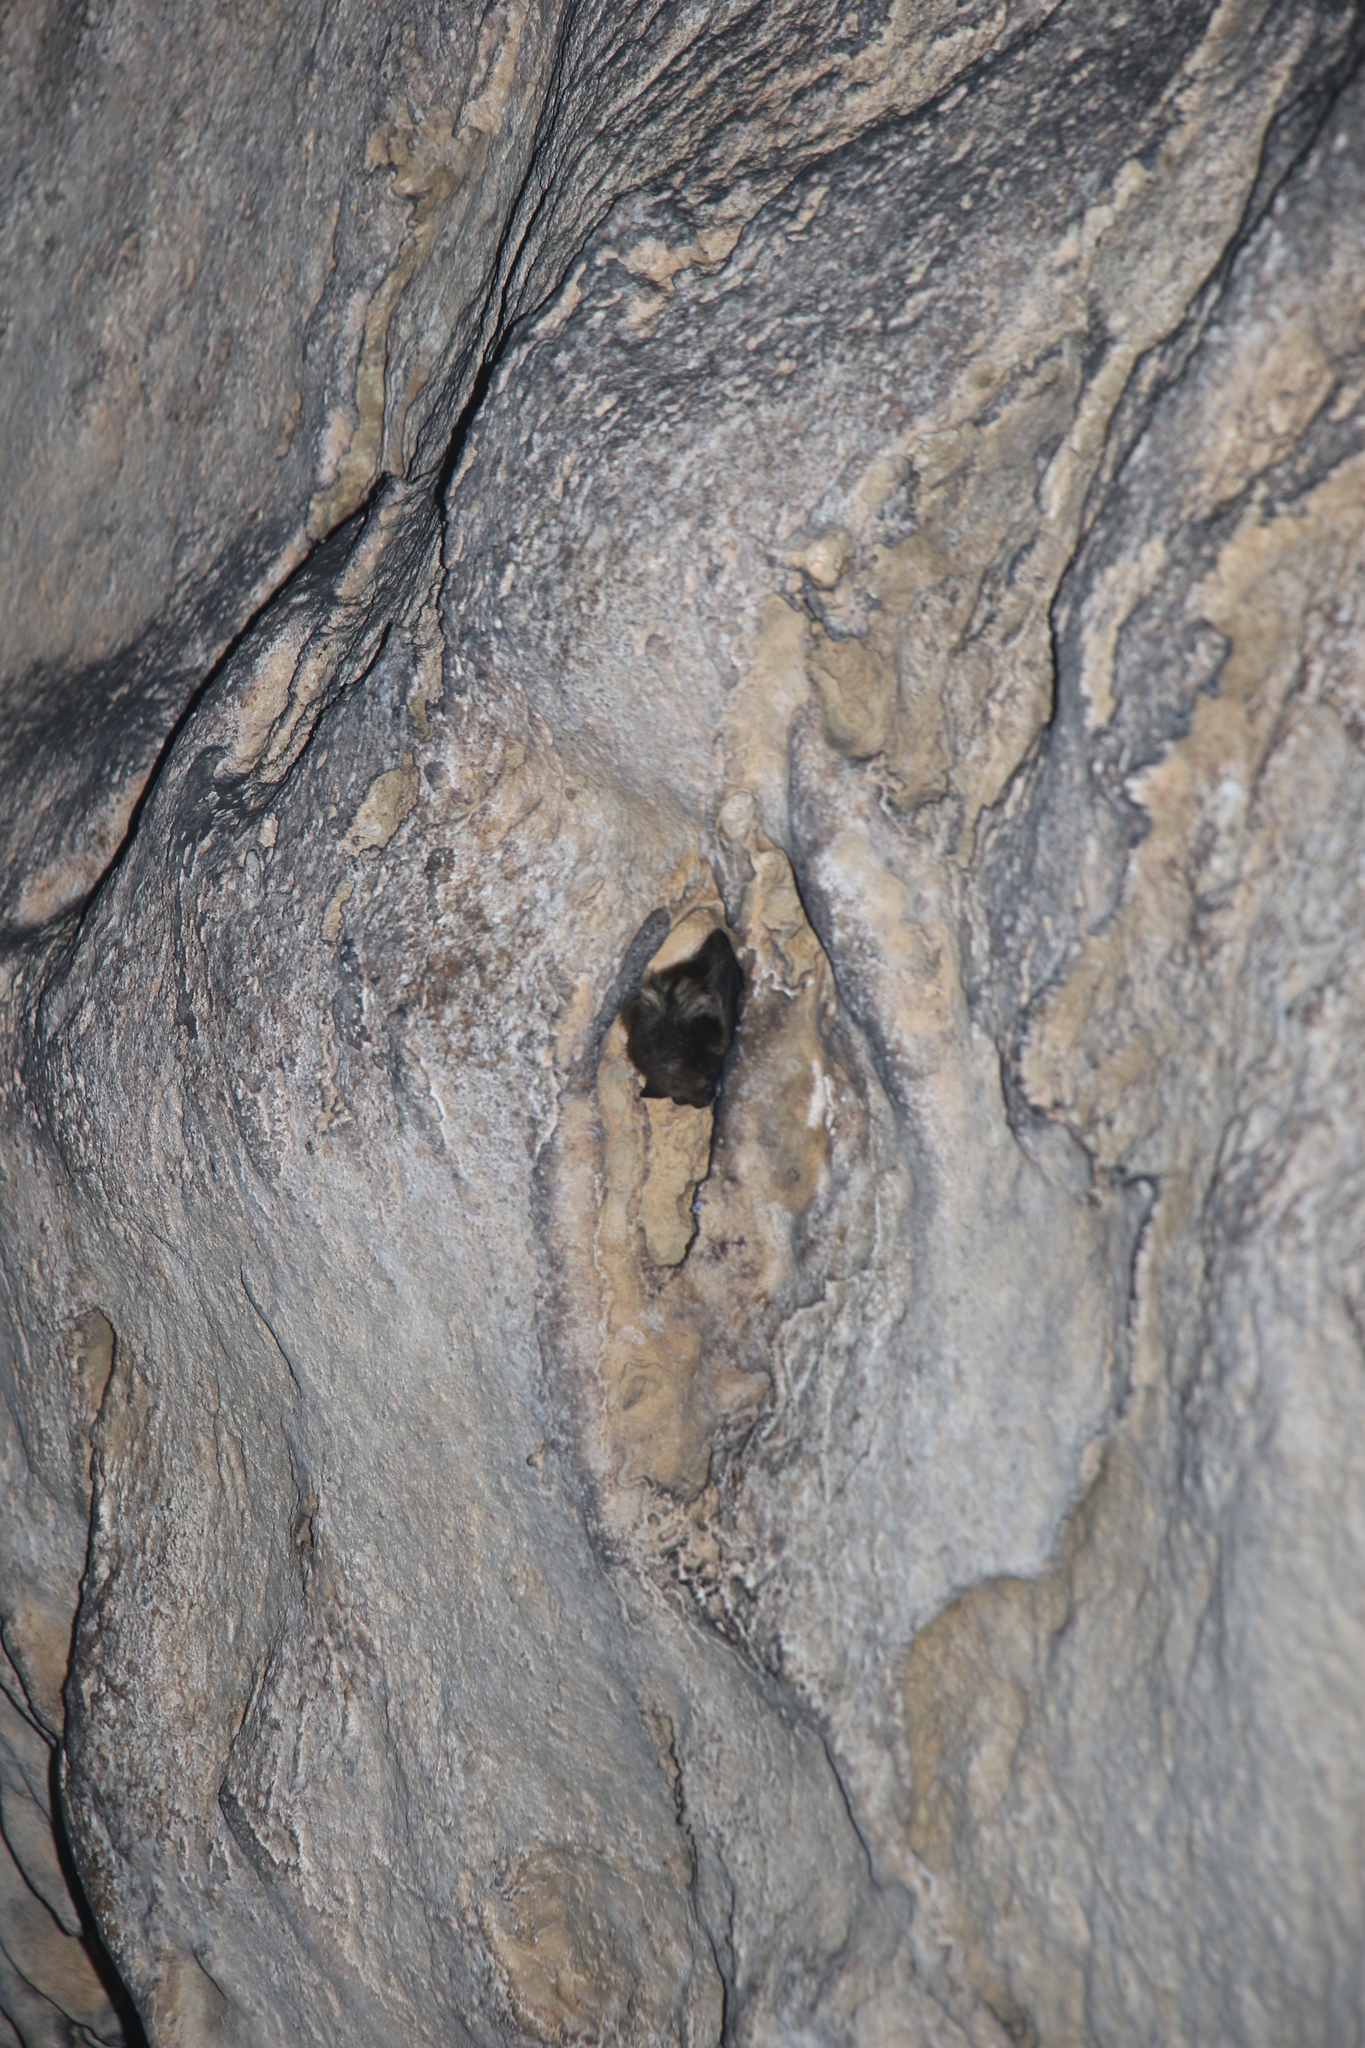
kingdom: Animalia
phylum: Chordata
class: Mammalia
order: Chiroptera
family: Vespertilionidae
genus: Eptesicus
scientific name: Eptesicus nilssonii
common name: Northern bat
